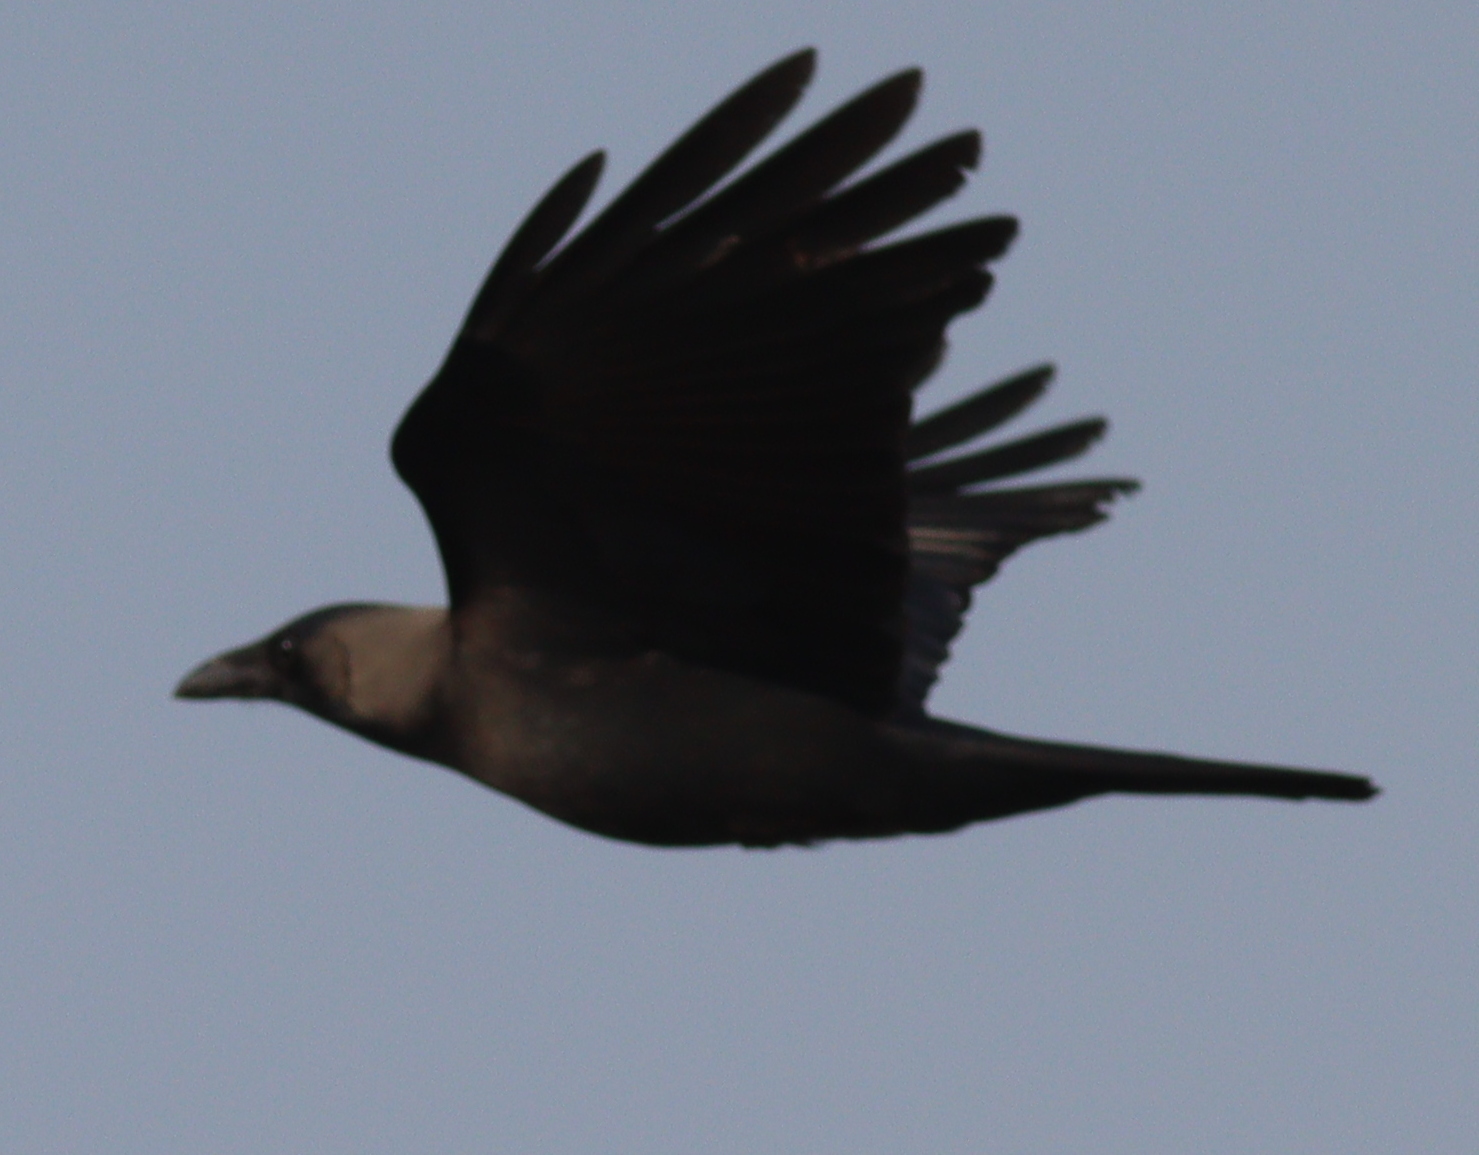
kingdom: Animalia
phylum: Chordata
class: Aves
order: Passeriformes
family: Corvidae
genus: Corvus
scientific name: Corvus splendens
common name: House crow
